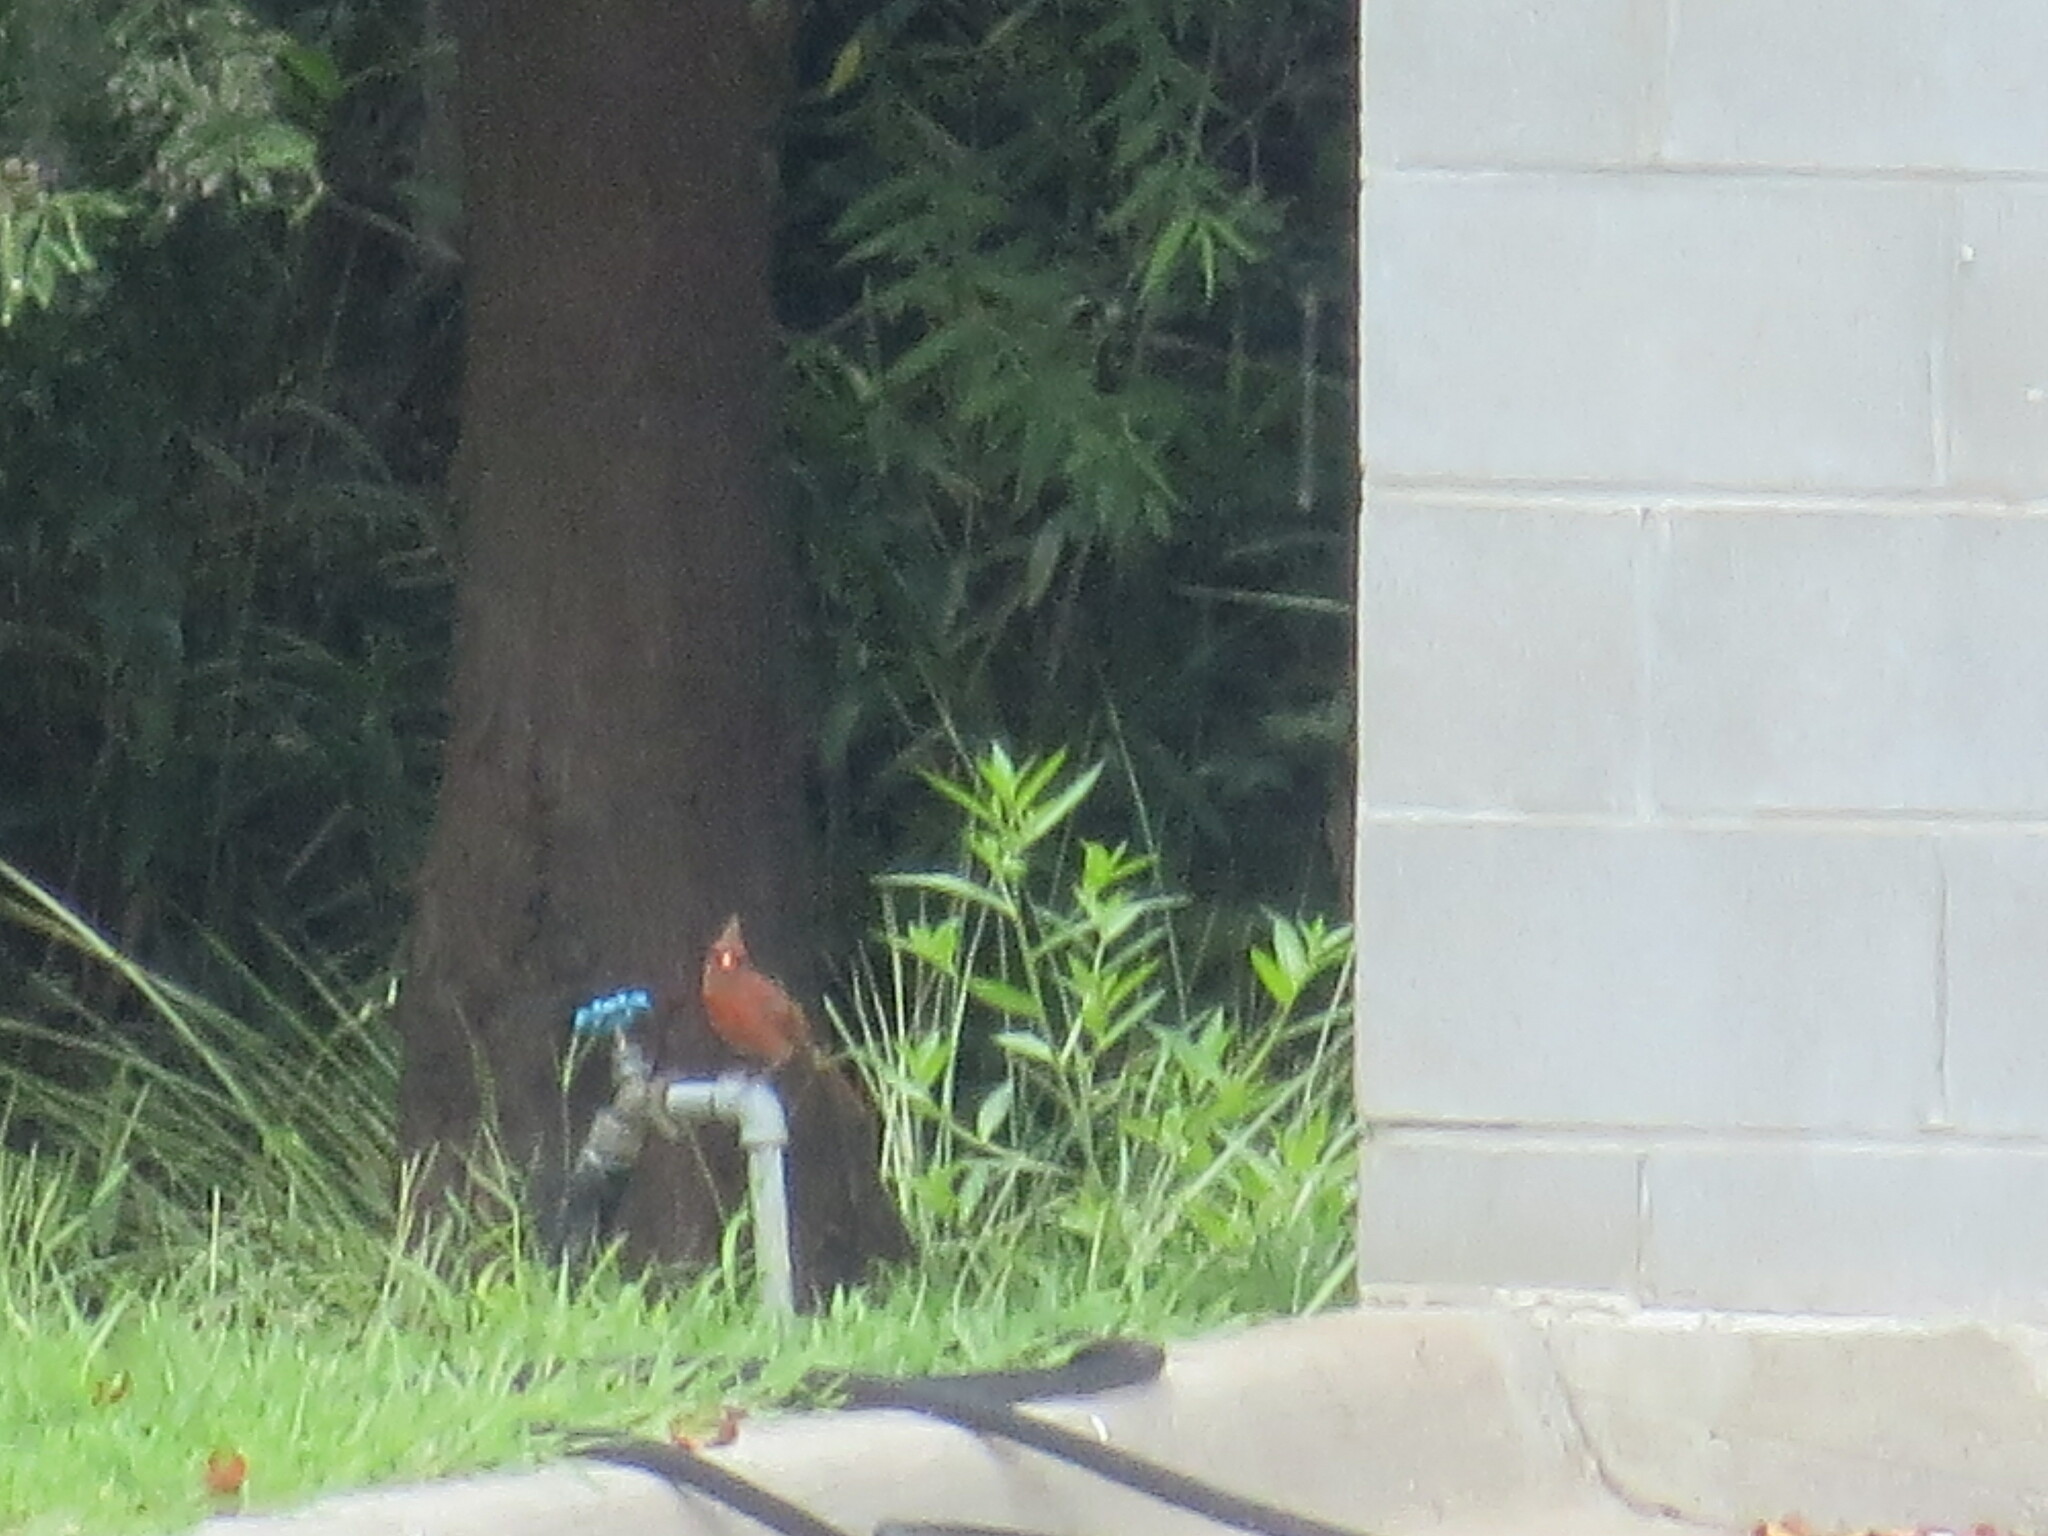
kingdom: Animalia
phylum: Chordata
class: Aves
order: Passeriformes
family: Cardinalidae
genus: Cardinalis
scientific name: Cardinalis cardinalis
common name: Northern cardinal
